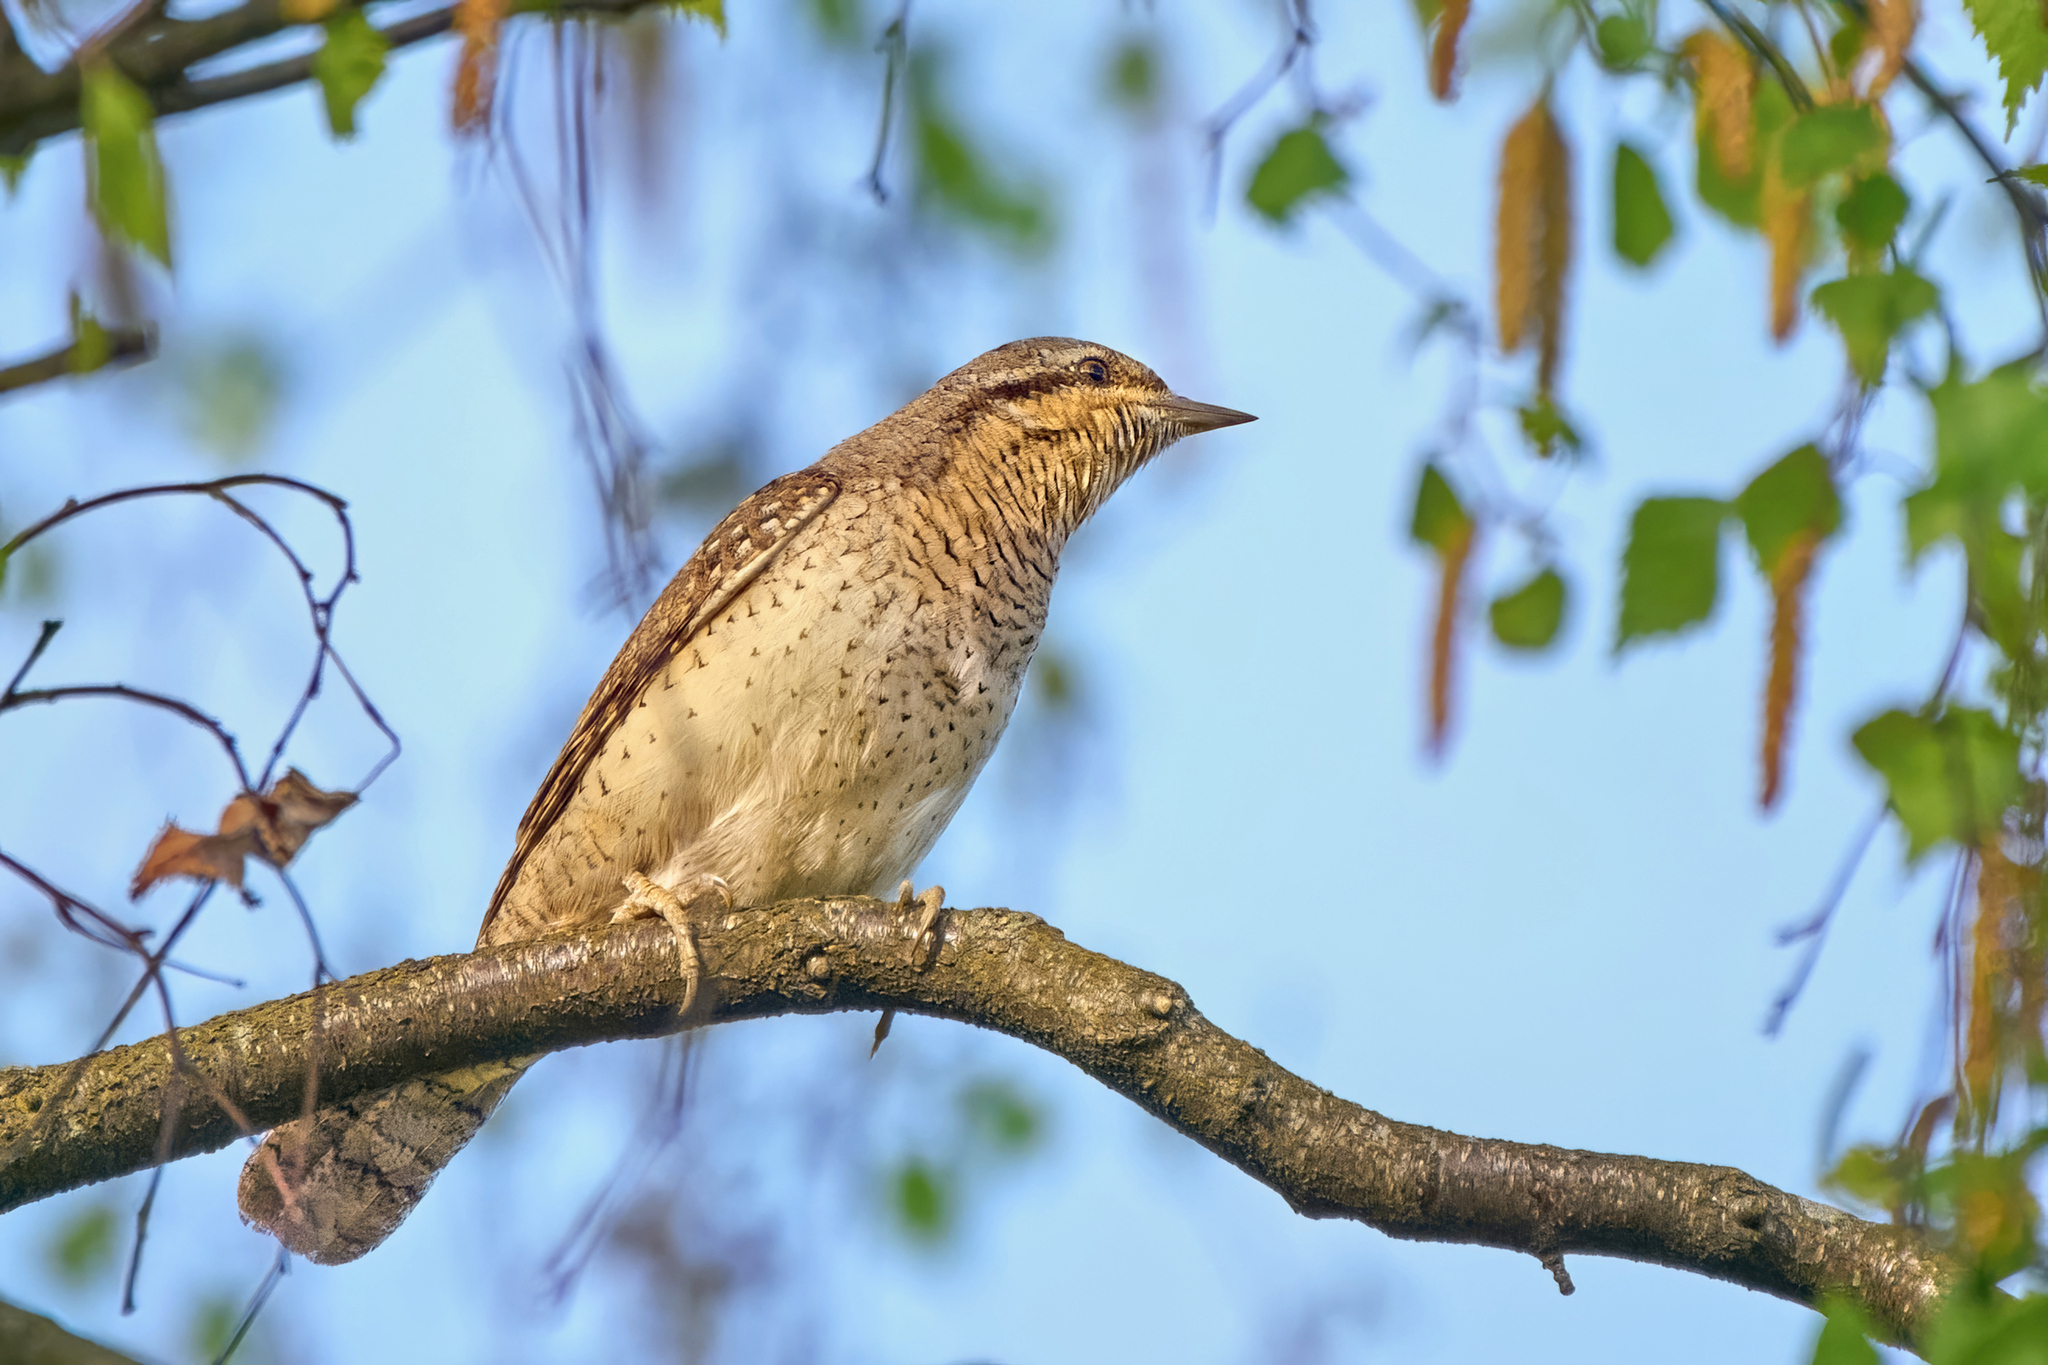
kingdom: Animalia
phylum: Chordata
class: Aves
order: Piciformes
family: Picidae
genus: Jynx
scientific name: Jynx torquilla
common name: Eurasian wryneck
